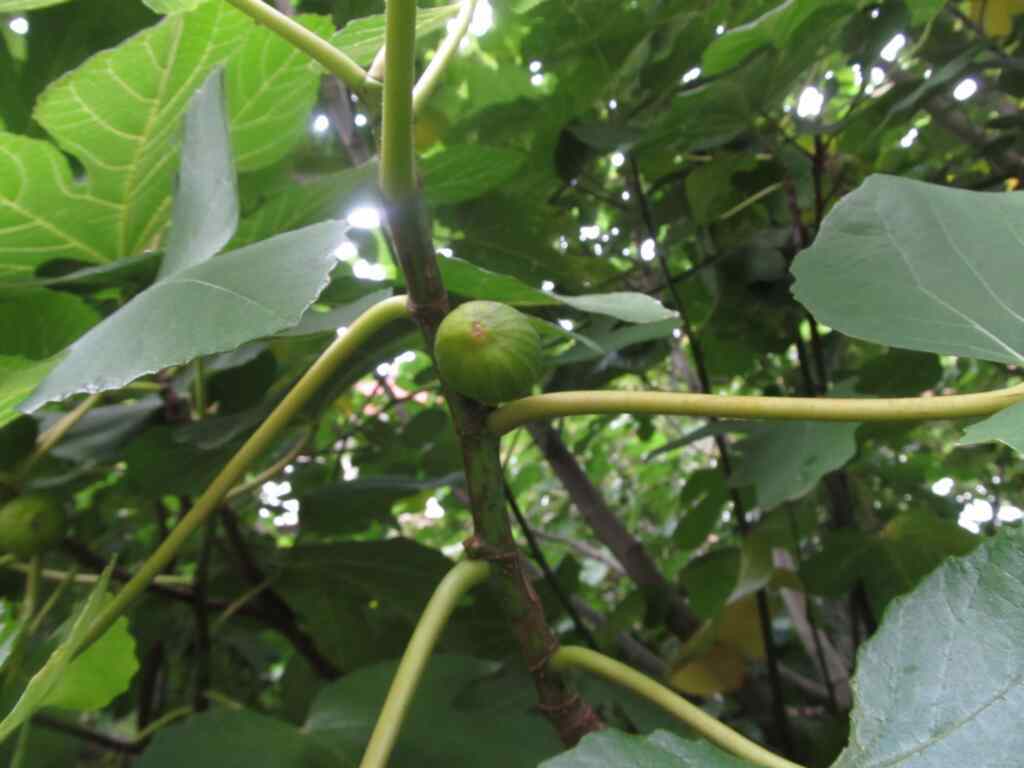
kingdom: Plantae
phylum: Tracheophyta
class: Magnoliopsida
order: Rosales
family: Moraceae
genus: Ficus
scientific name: Ficus carica
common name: Fig
